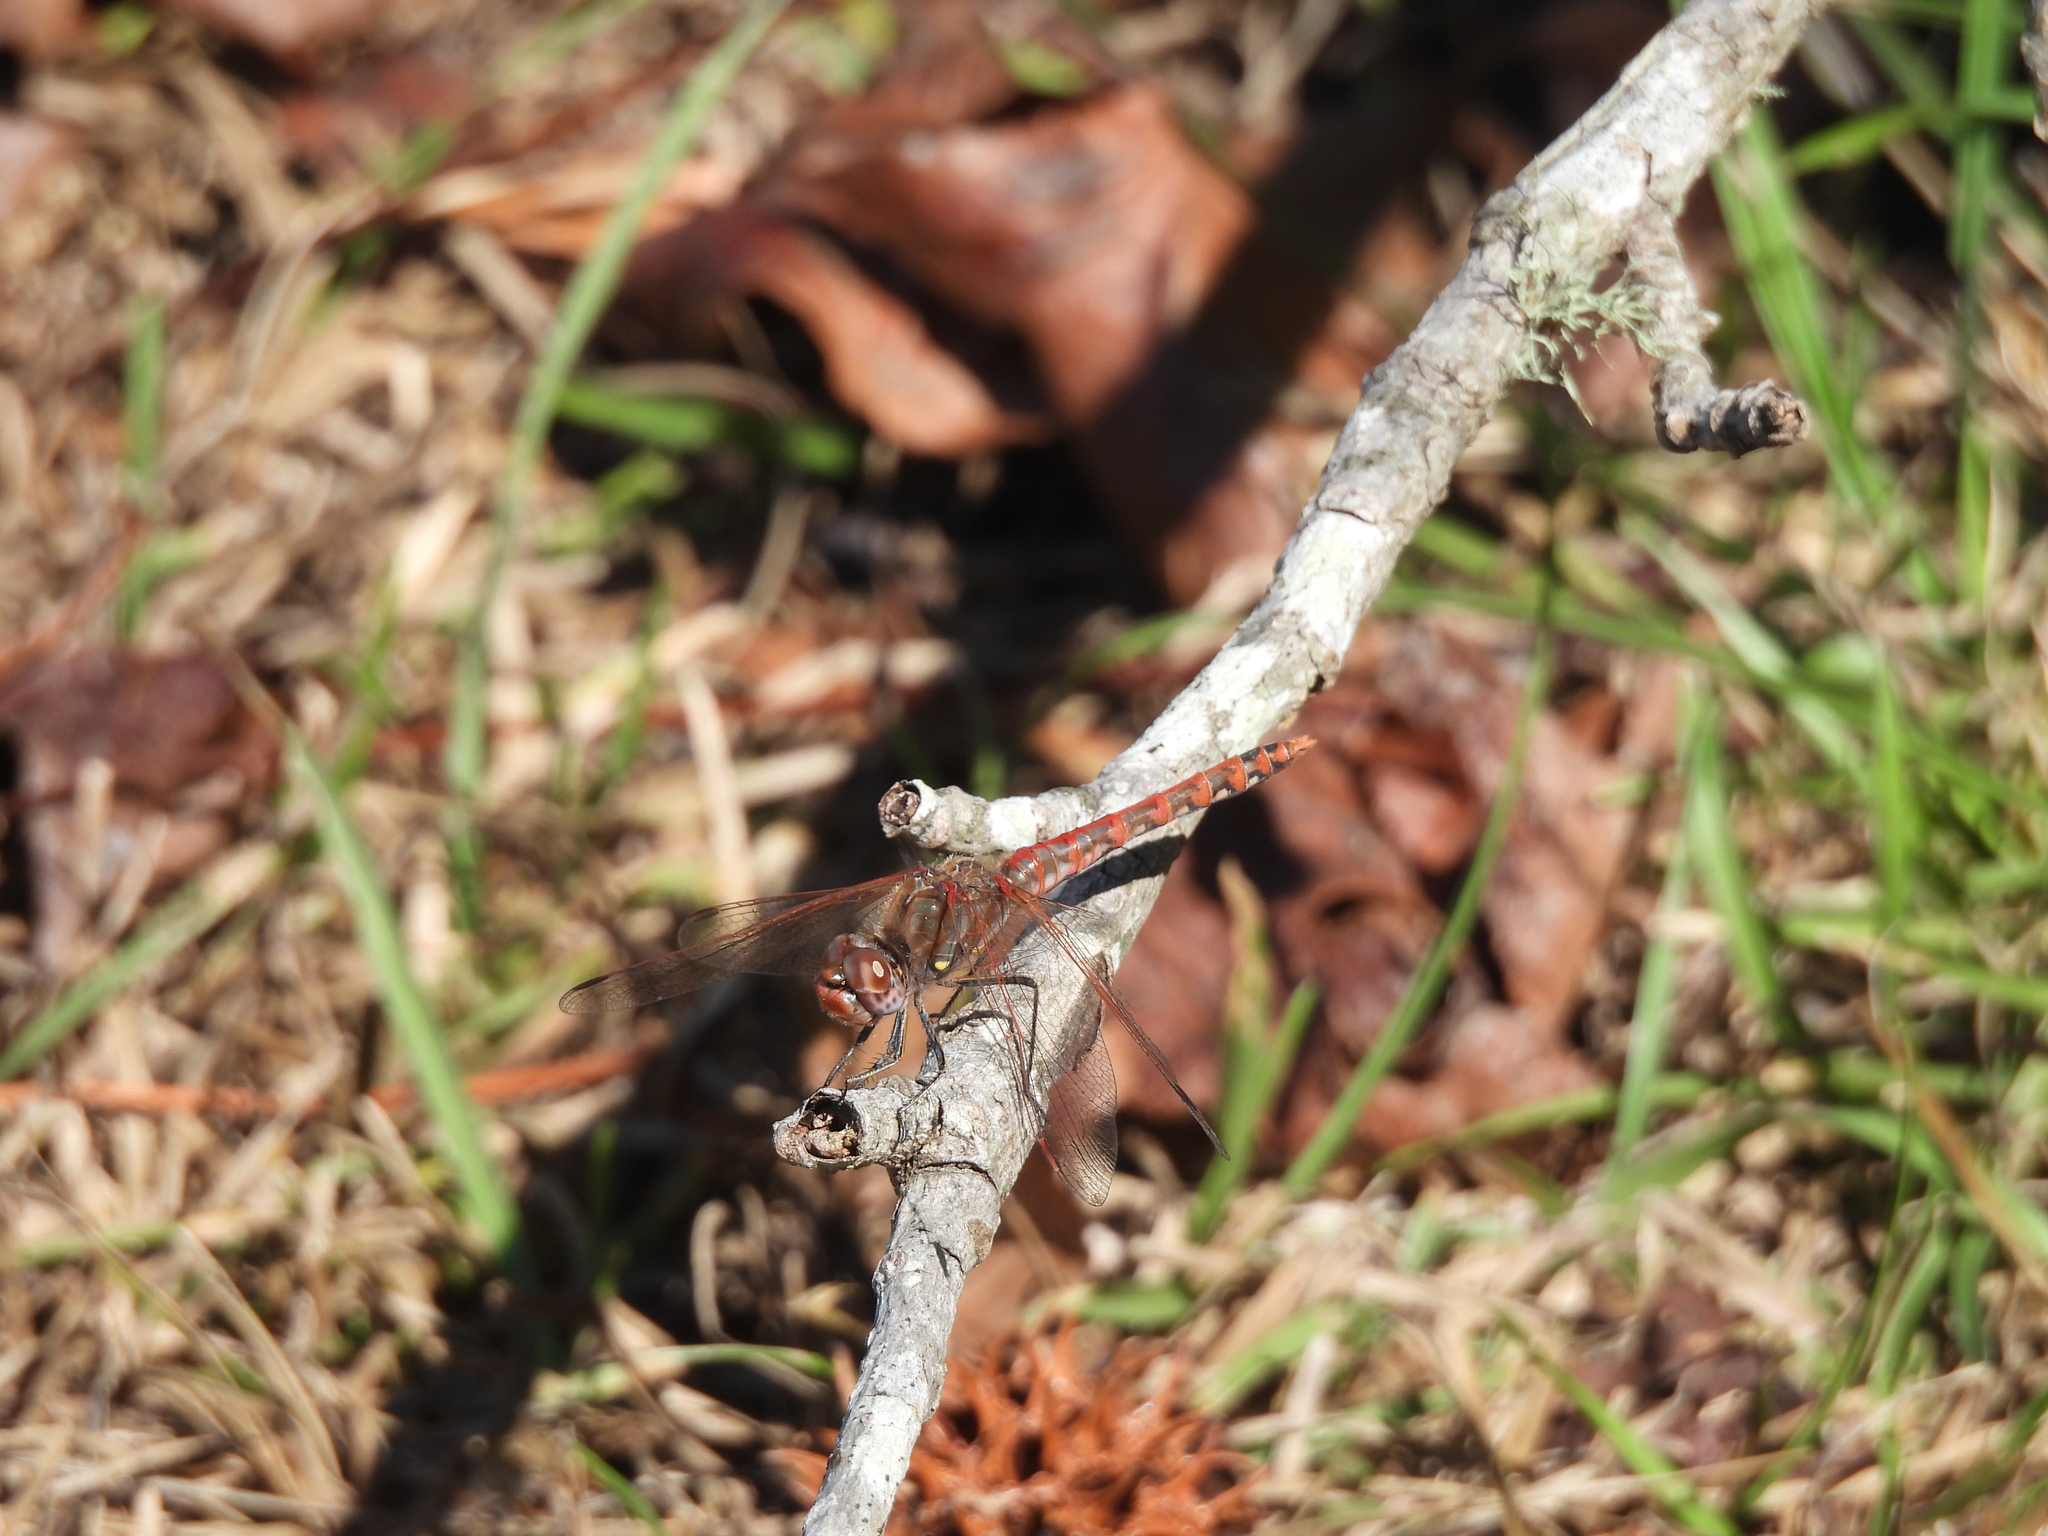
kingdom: Animalia
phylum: Arthropoda
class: Insecta
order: Odonata
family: Libellulidae
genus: Sympetrum
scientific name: Sympetrum corruptum
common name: Variegated meadowhawk
